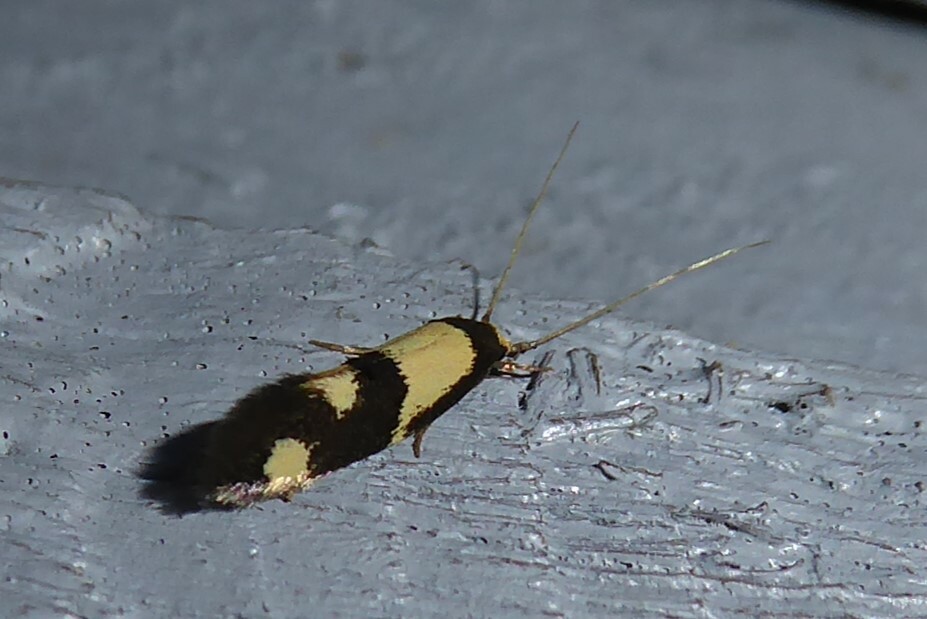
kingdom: Animalia
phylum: Arthropoda
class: Insecta
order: Lepidoptera
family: Tineidae
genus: Opogona
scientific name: Opogona comptella
